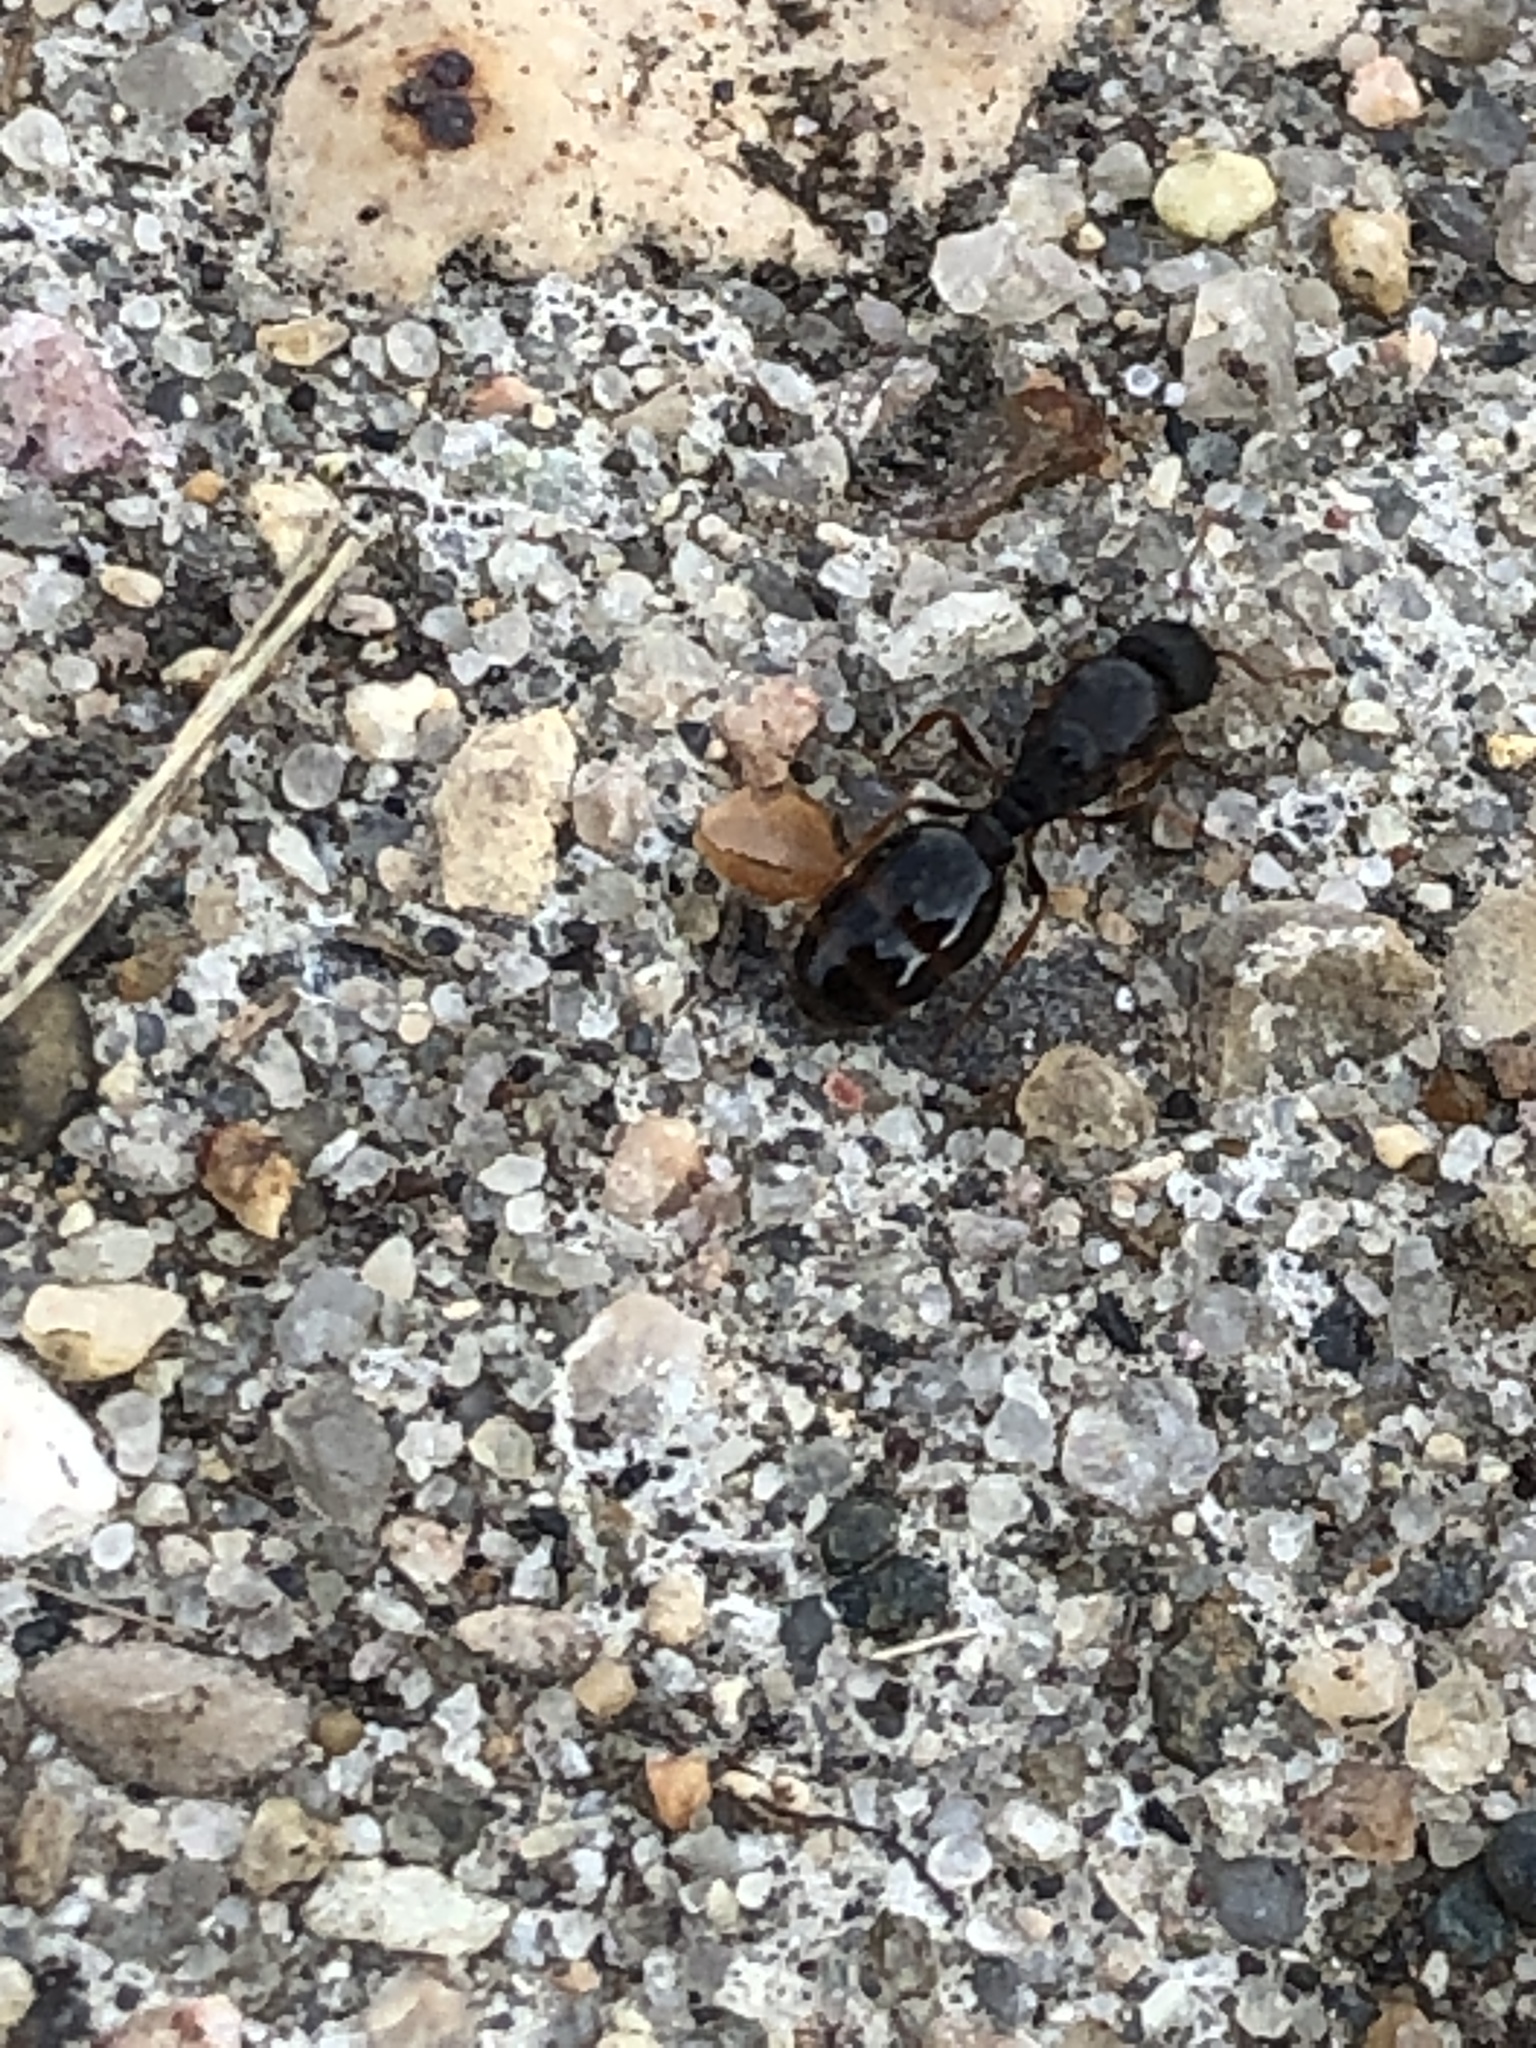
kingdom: Animalia
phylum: Arthropoda
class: Insecta
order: Hymenoptera
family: Formicidae
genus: Tetramorium
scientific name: Tetramorium immigrans
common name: Pavement ant
